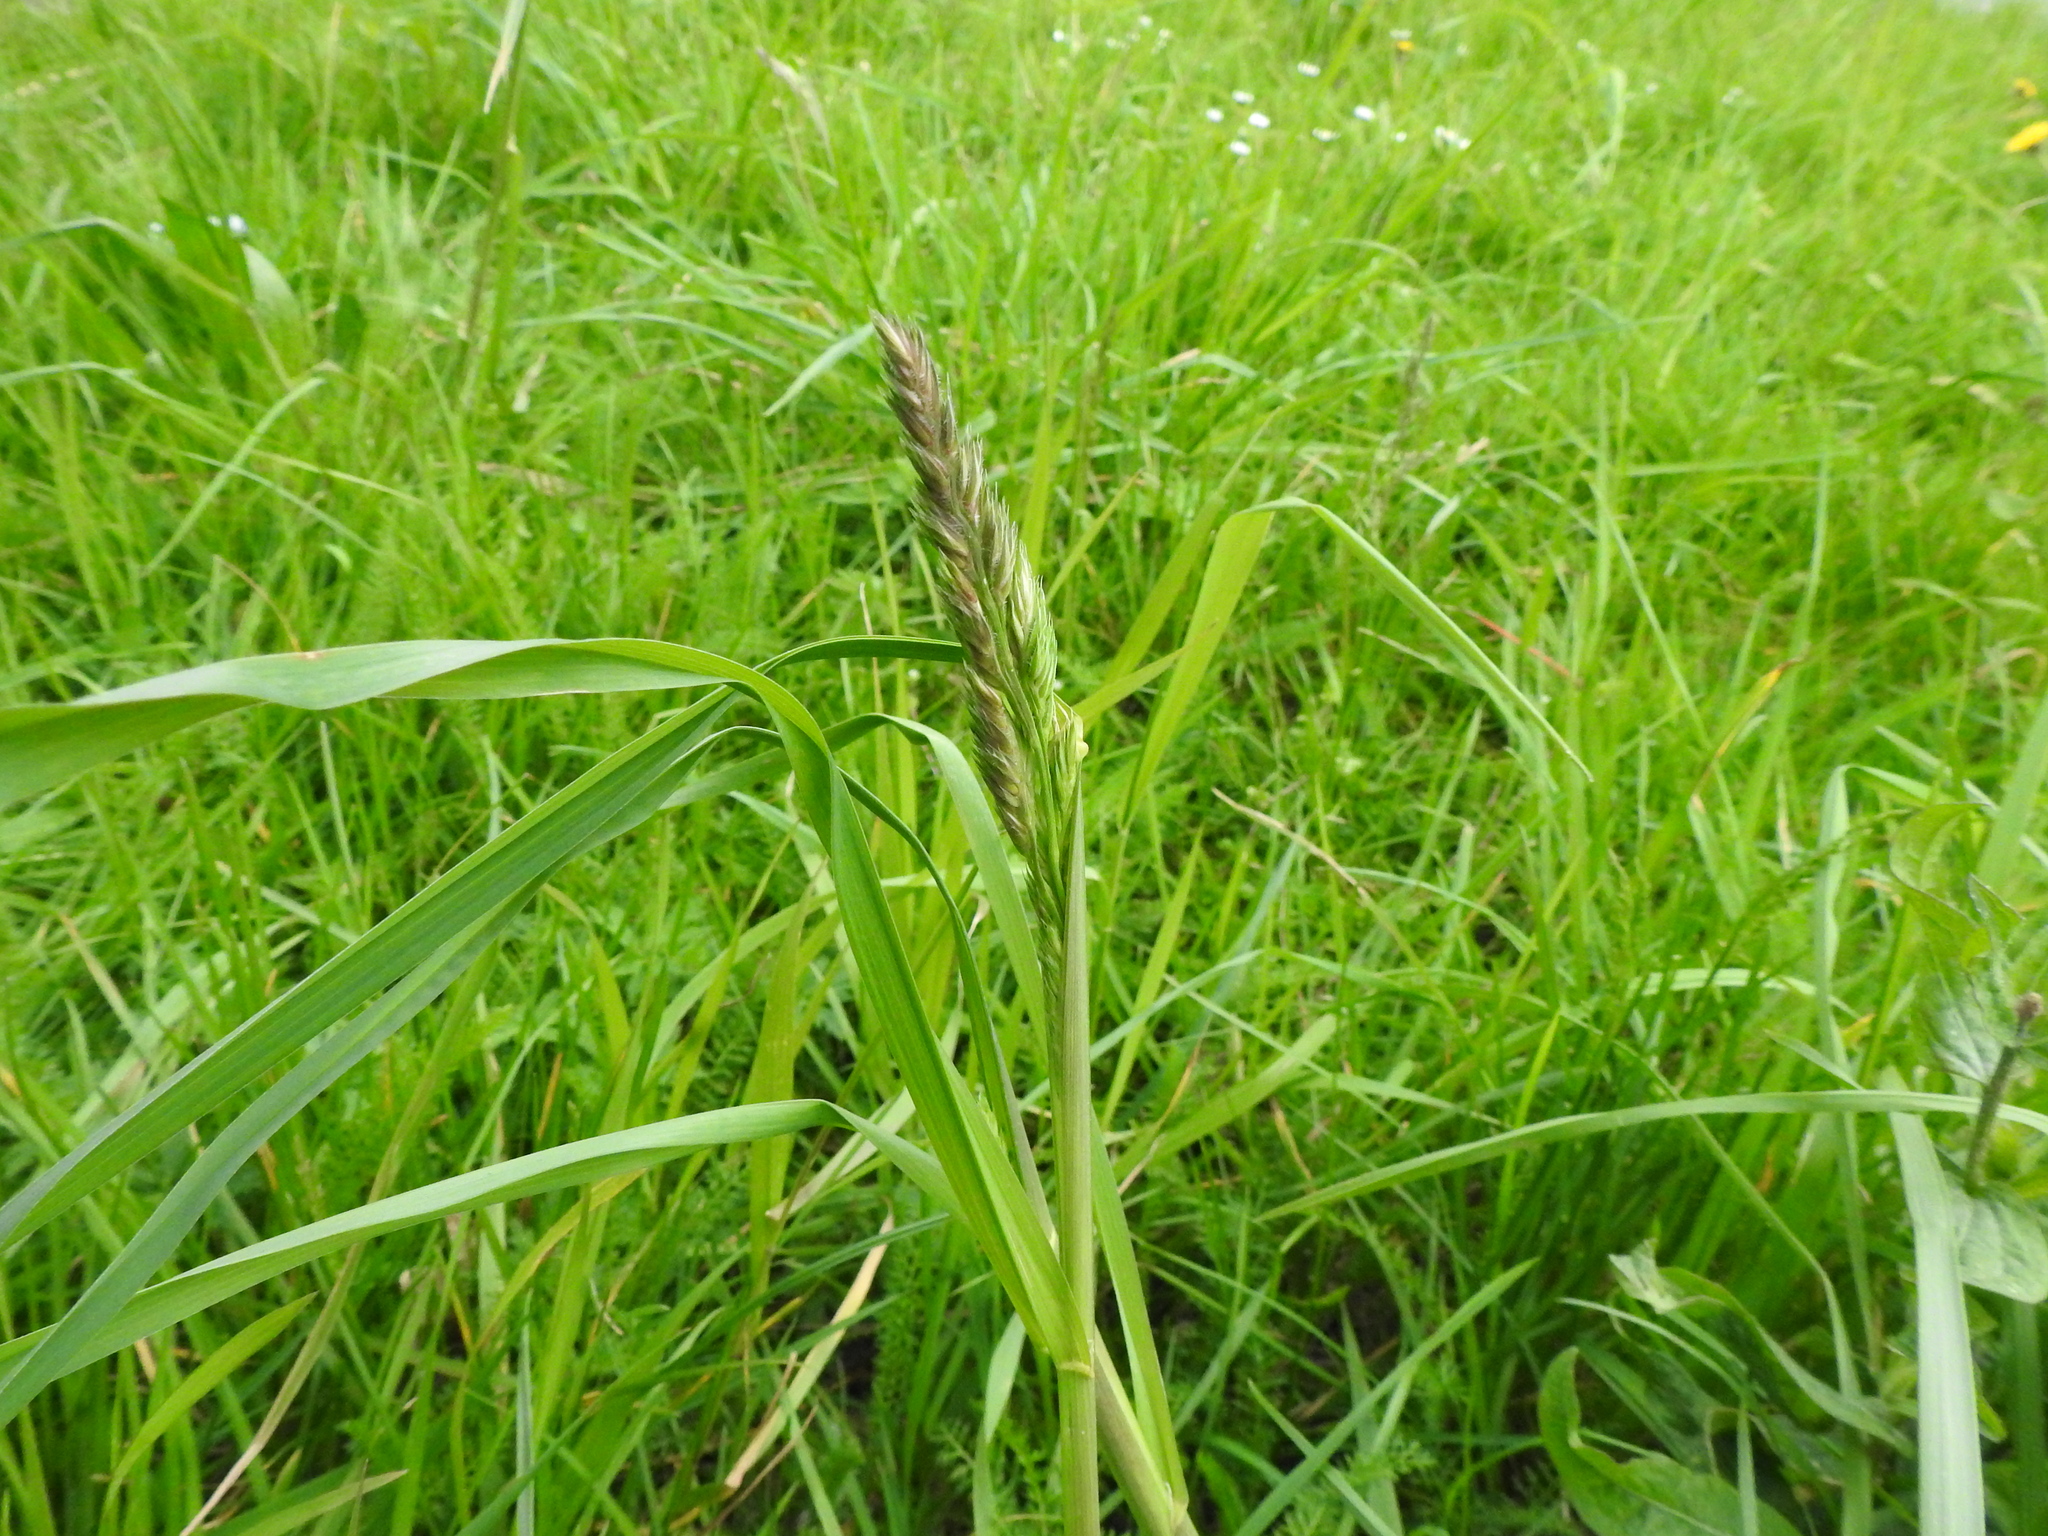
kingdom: Plantae
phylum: Tracheophyta
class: Liliopsida
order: Poales
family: Poaceae
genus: Dactylis
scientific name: Dactylis glomerata
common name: Orchardgrass
